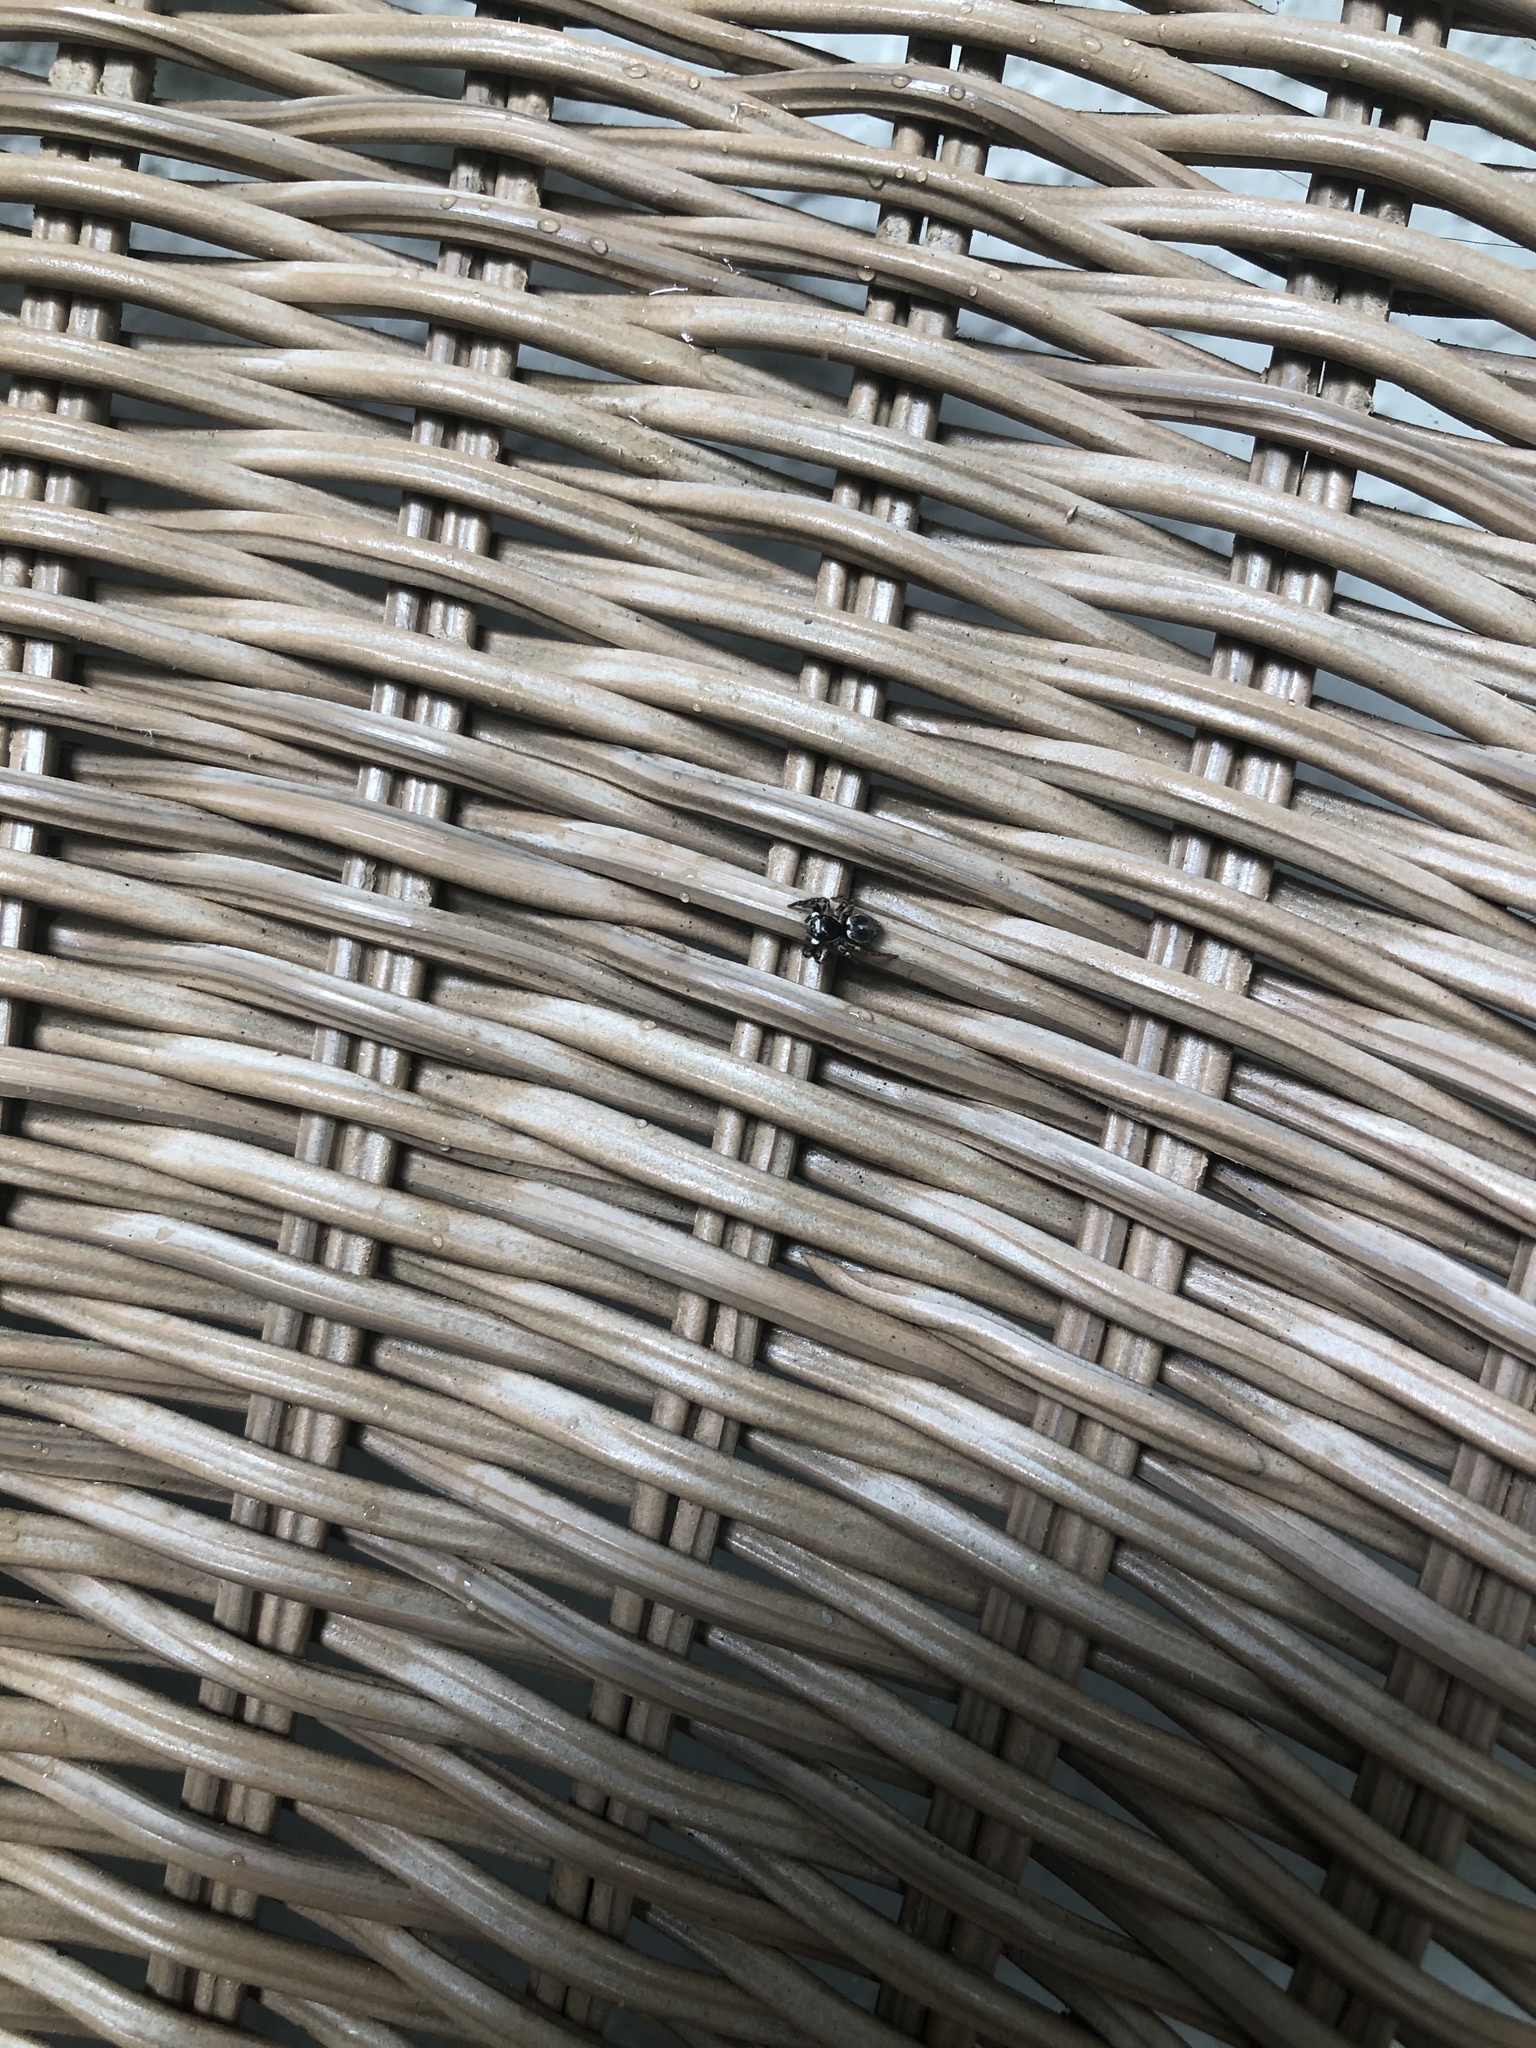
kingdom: Animalia
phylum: Arthropoda
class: Arachnida
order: Araneae
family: Salticidae
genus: Anasaitis
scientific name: Anasaitis canosa
